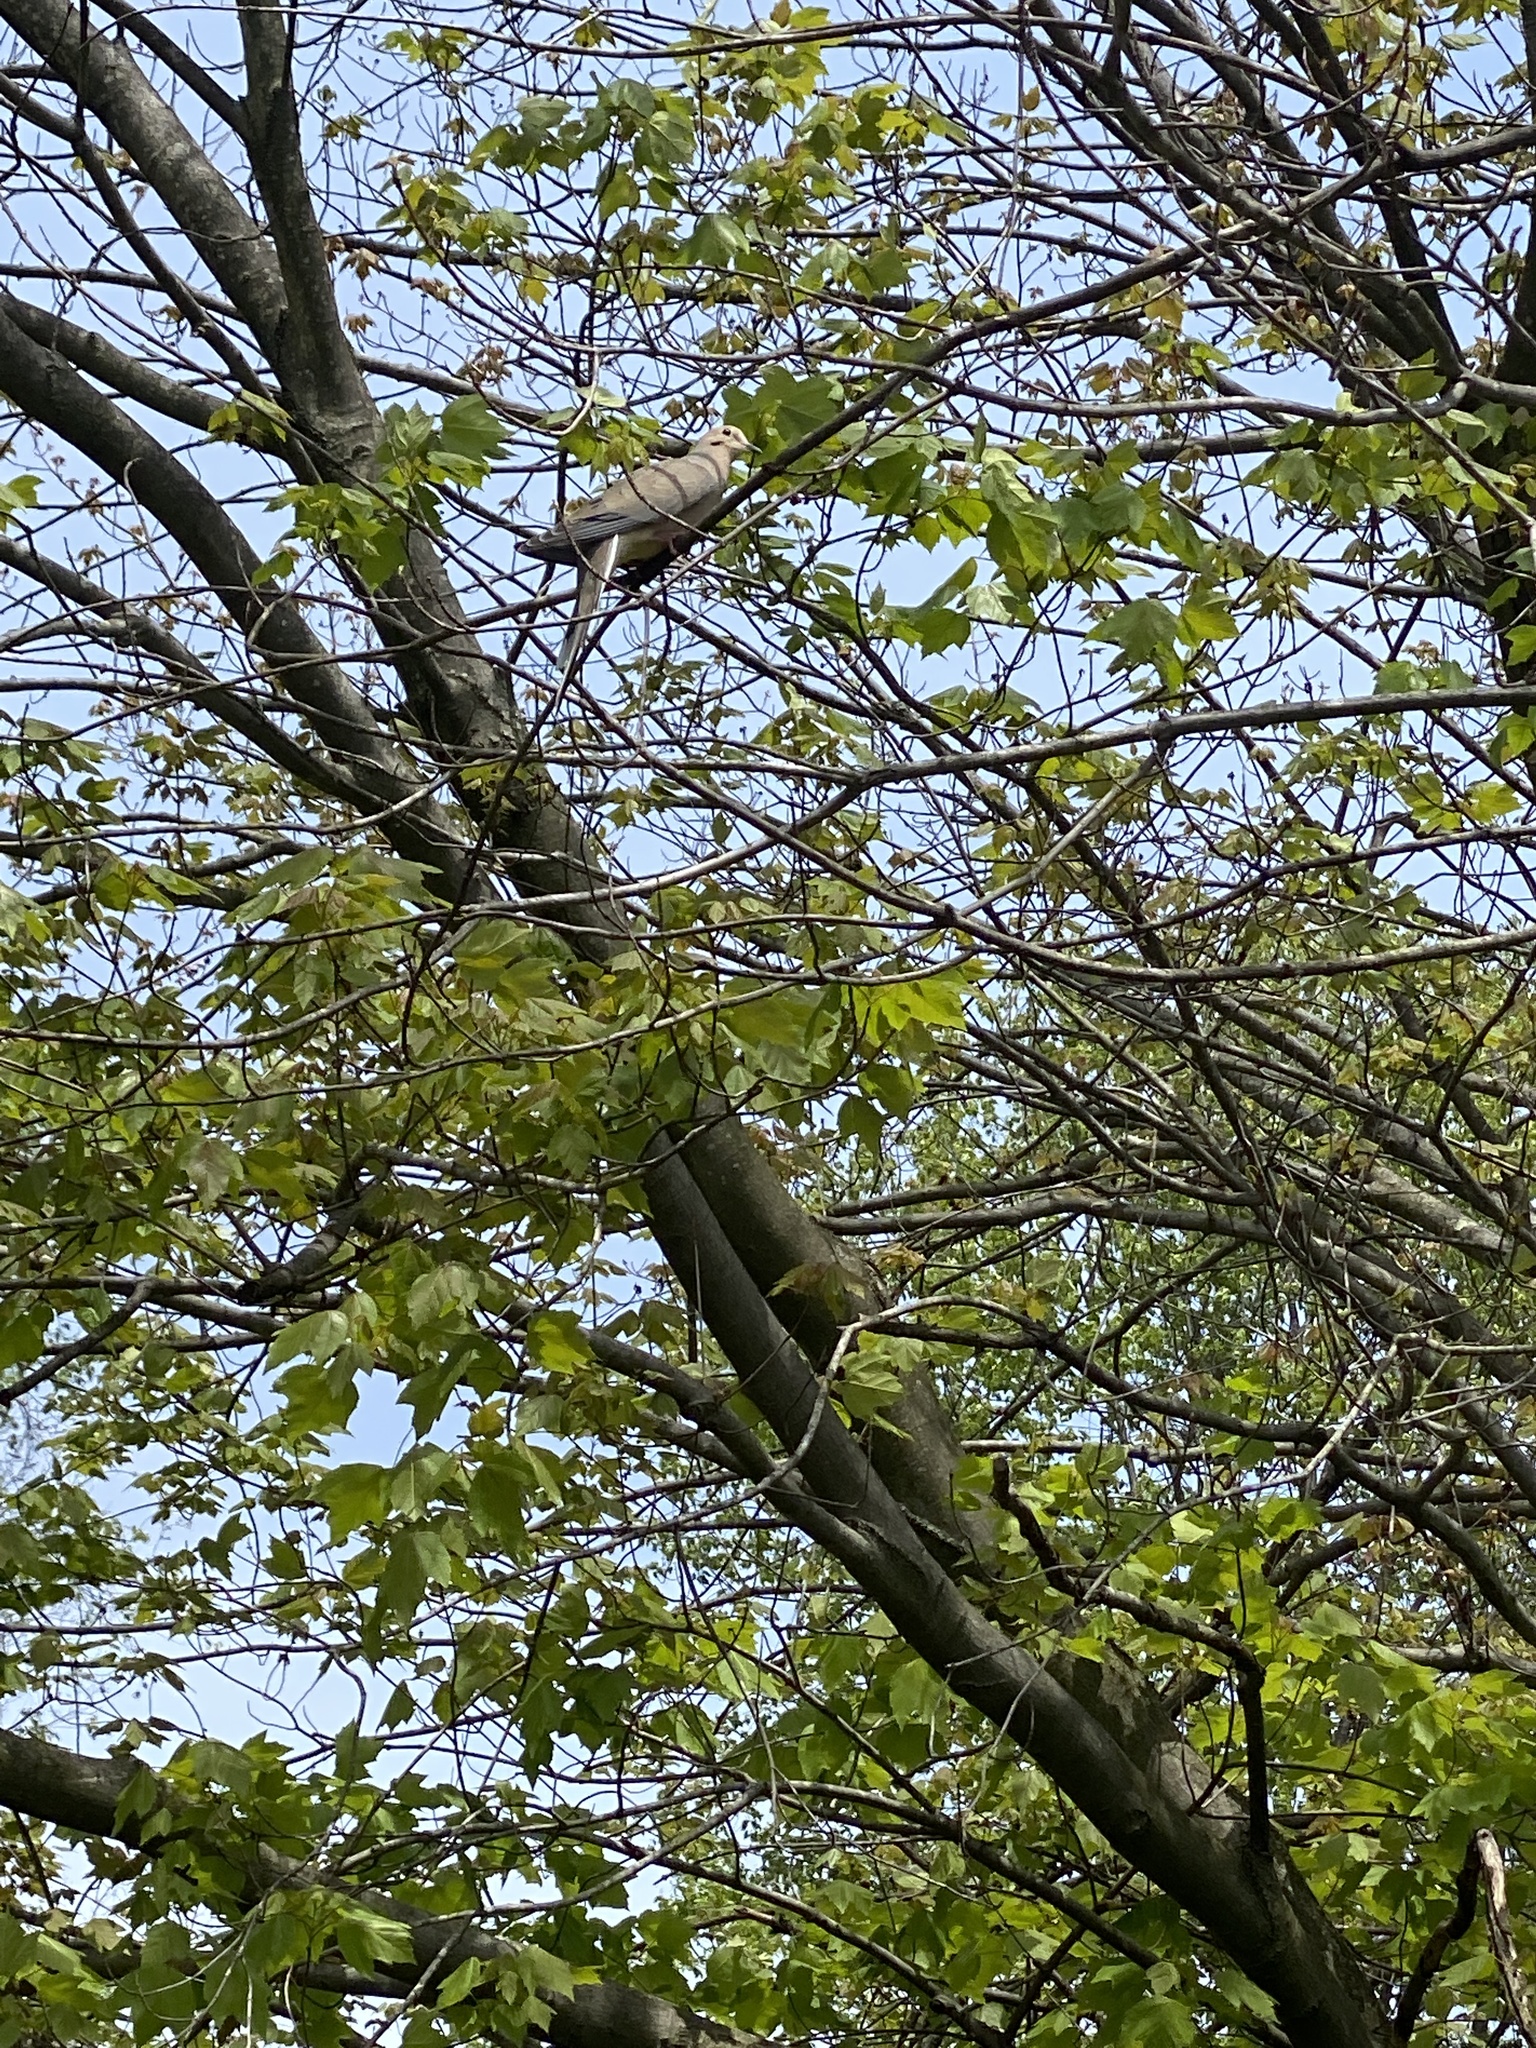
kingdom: Animalia
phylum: Chordata
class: Aves
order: Columbiformes
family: Columbidae
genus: Zenaida
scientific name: Zenaida macroura
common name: Mourning dove
